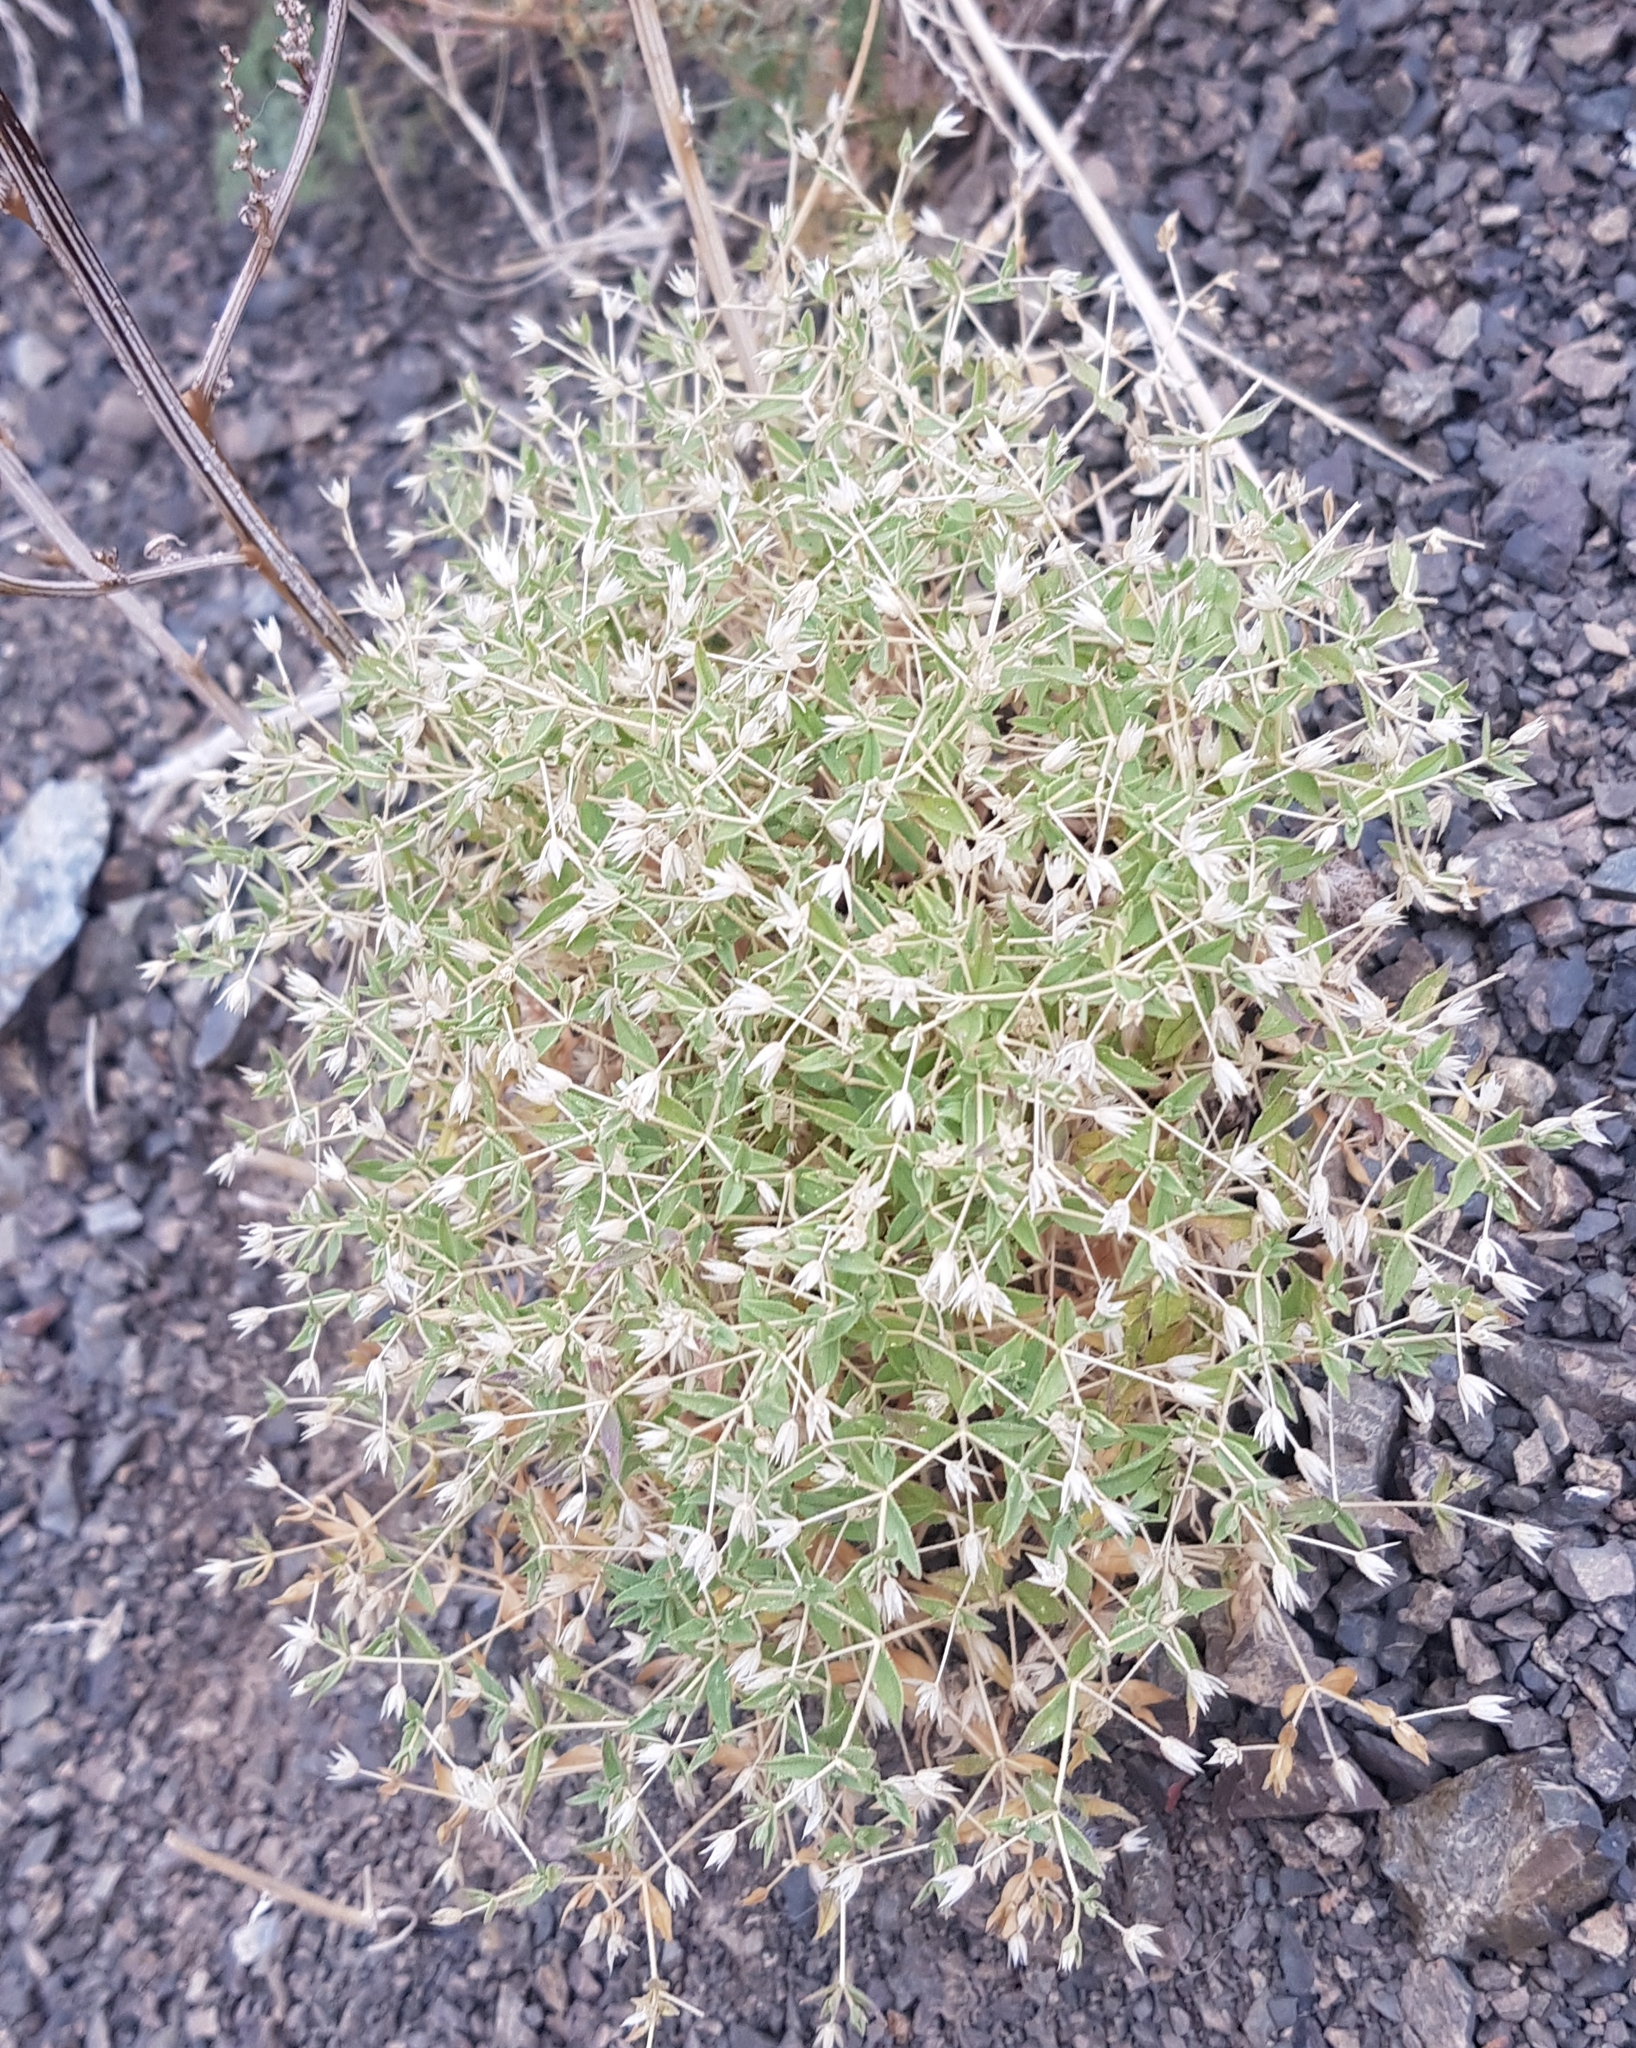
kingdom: Plantae
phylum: Tracheophyta
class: Magnoliopsida
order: Caryophyllales
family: Caryophyllaceae
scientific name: Caryophyllaceae
